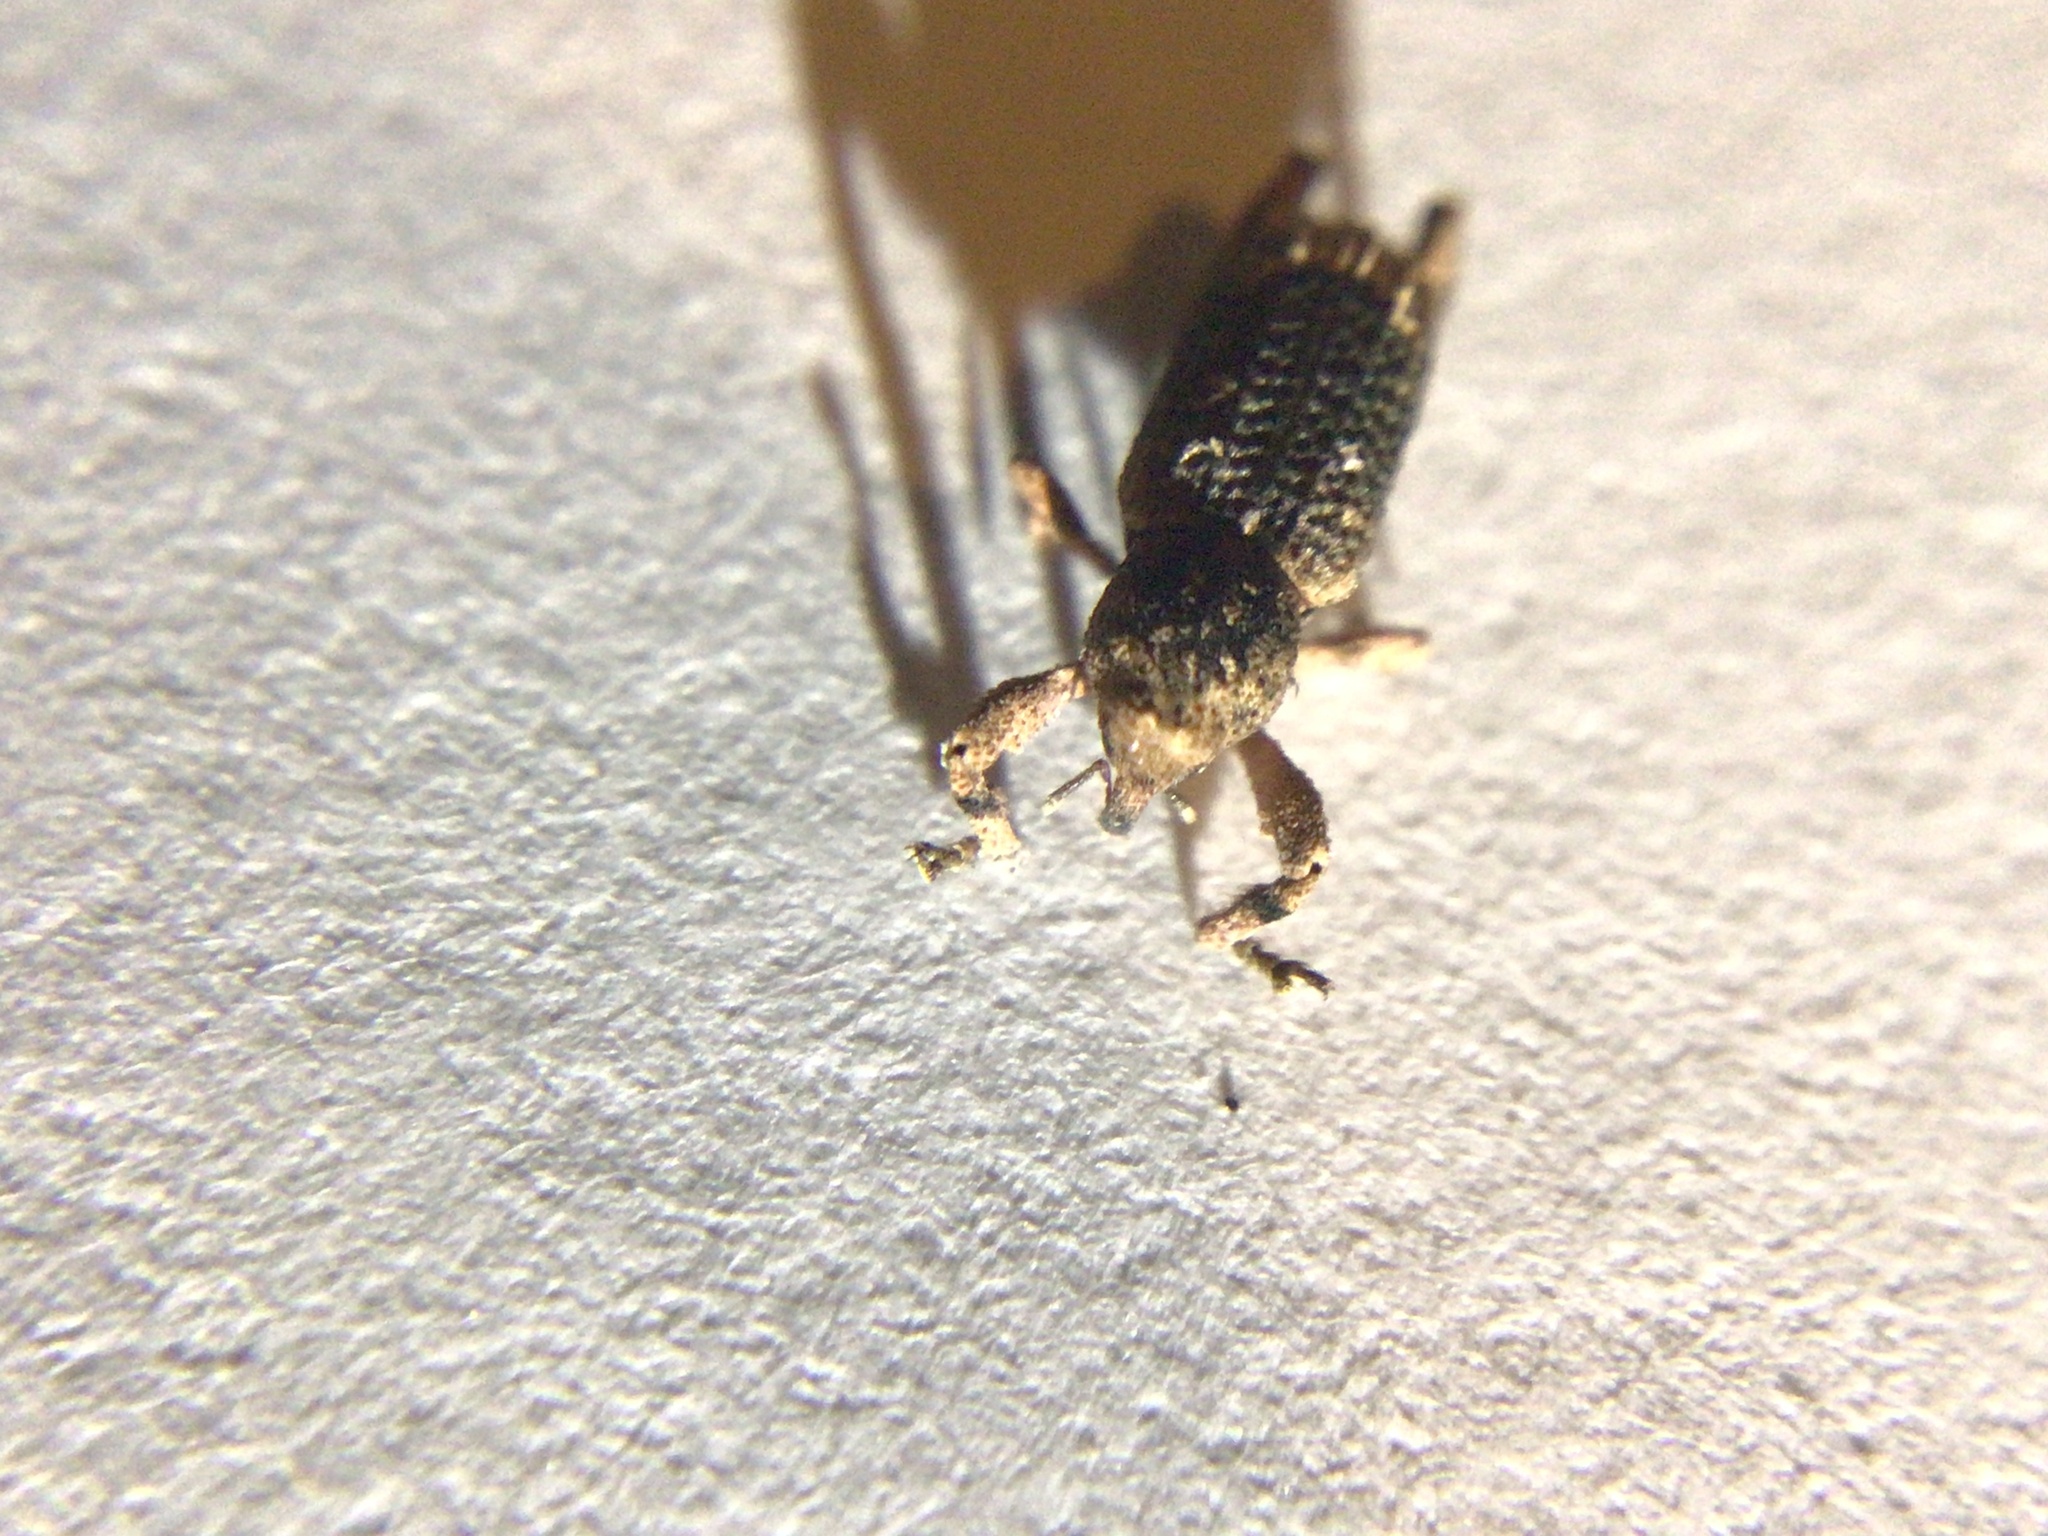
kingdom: Animalia
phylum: Arthropoda
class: Insecta
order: Coleoptera
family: Curculionidae
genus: Camptorhinus
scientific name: Camptorhinus dorsalis
